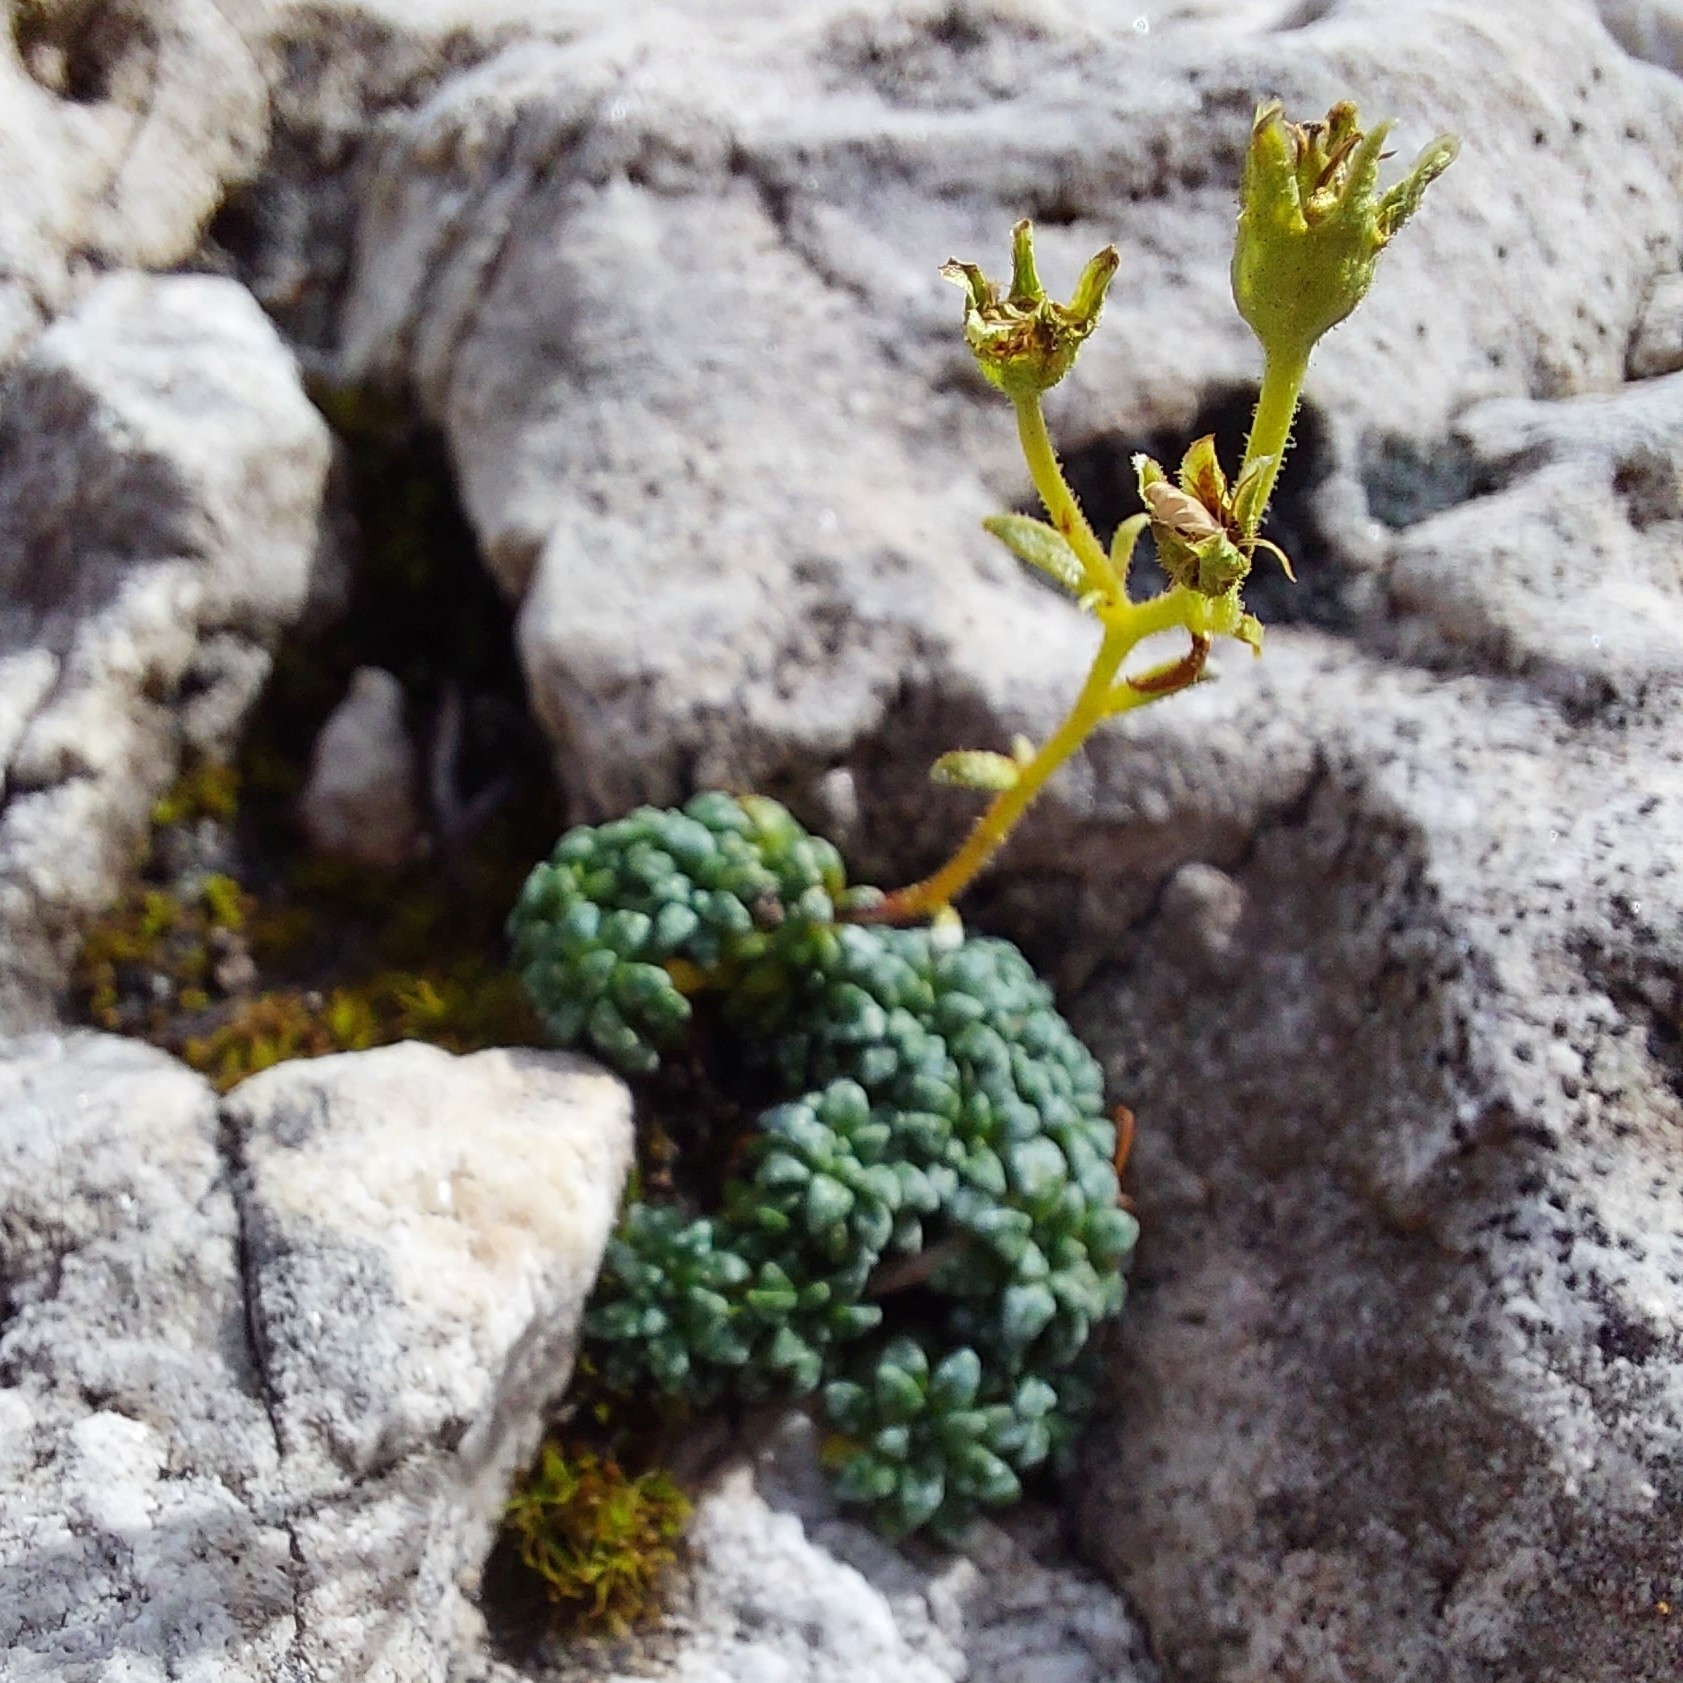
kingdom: Plantae
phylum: Tracheophyta
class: Magnoliopsida
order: Saxifragales
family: Saxifragaceae
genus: Saxifraga
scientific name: Saxifraga caesia
